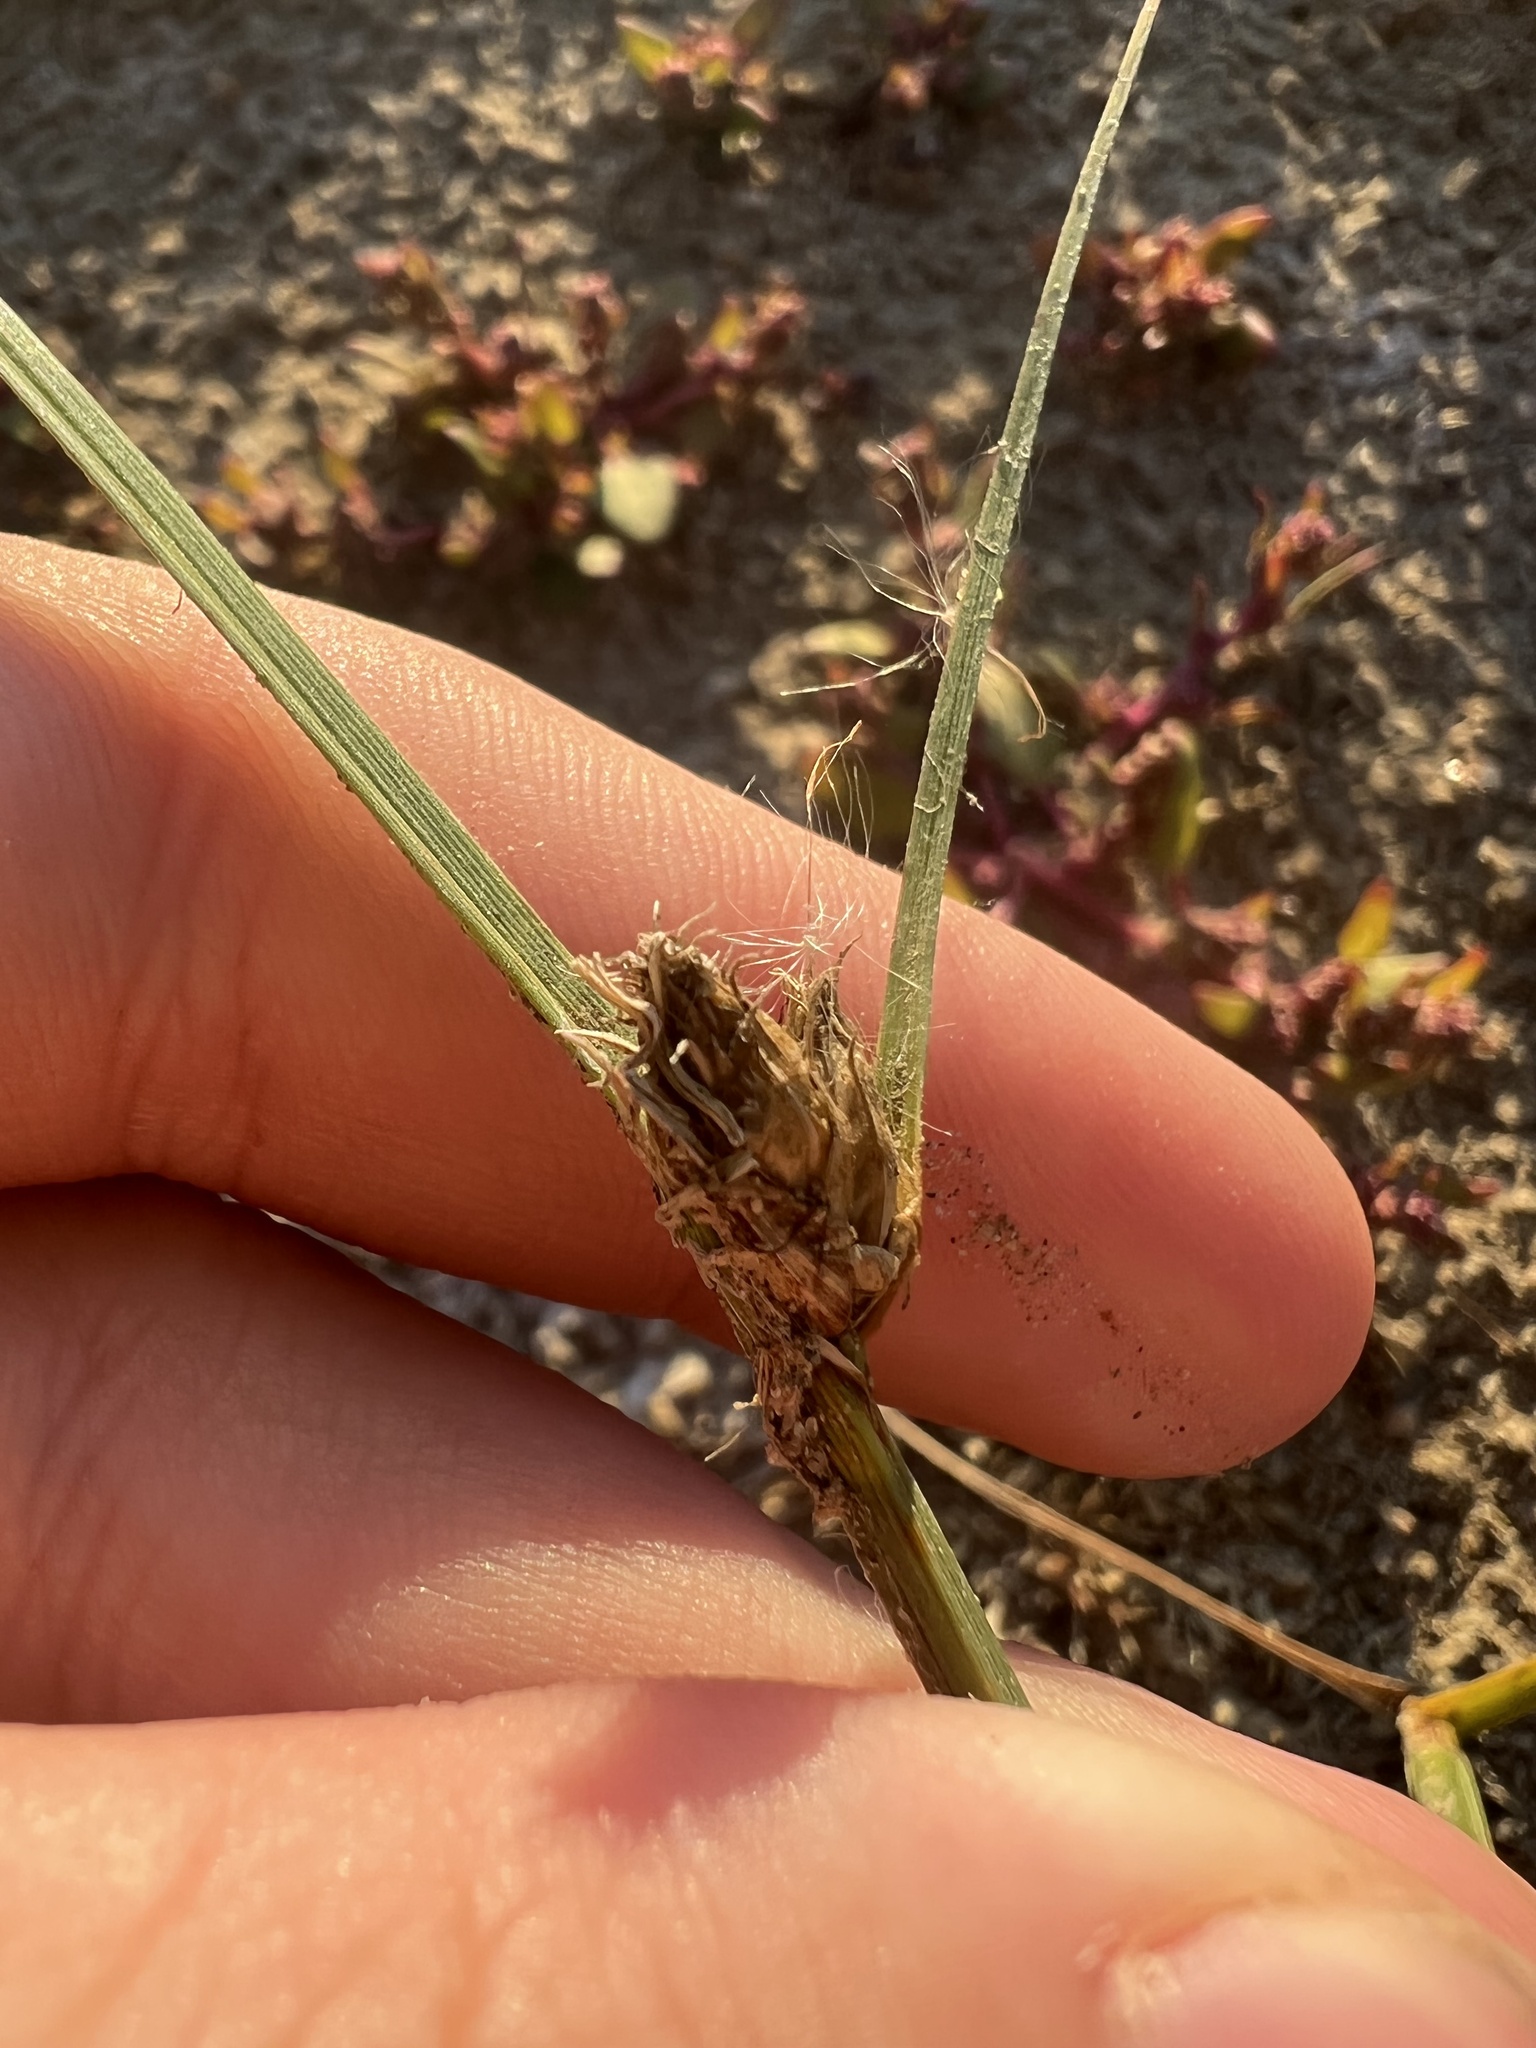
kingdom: Plantae
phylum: Tracheophyta
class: Liliopsida
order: Poales
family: Cyperaceae
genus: Schoenoplectus
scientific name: Schoenoplectus pungens
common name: Sharp club-rush
